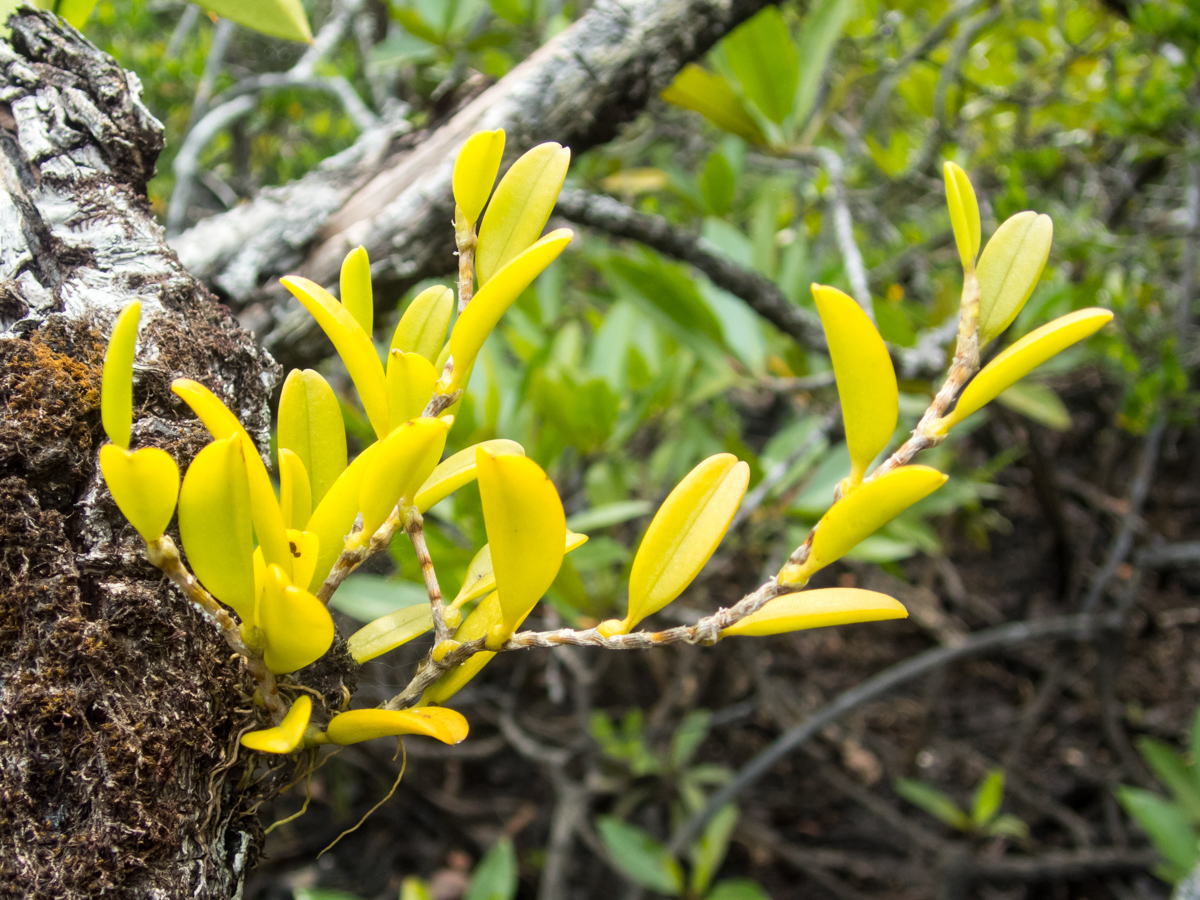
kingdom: Plantae
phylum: Tracheophyta
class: Liliopsida
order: Asparagales
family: Orchidaceae
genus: Bulbophyllum
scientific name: Bulbophyllum clandestinum
